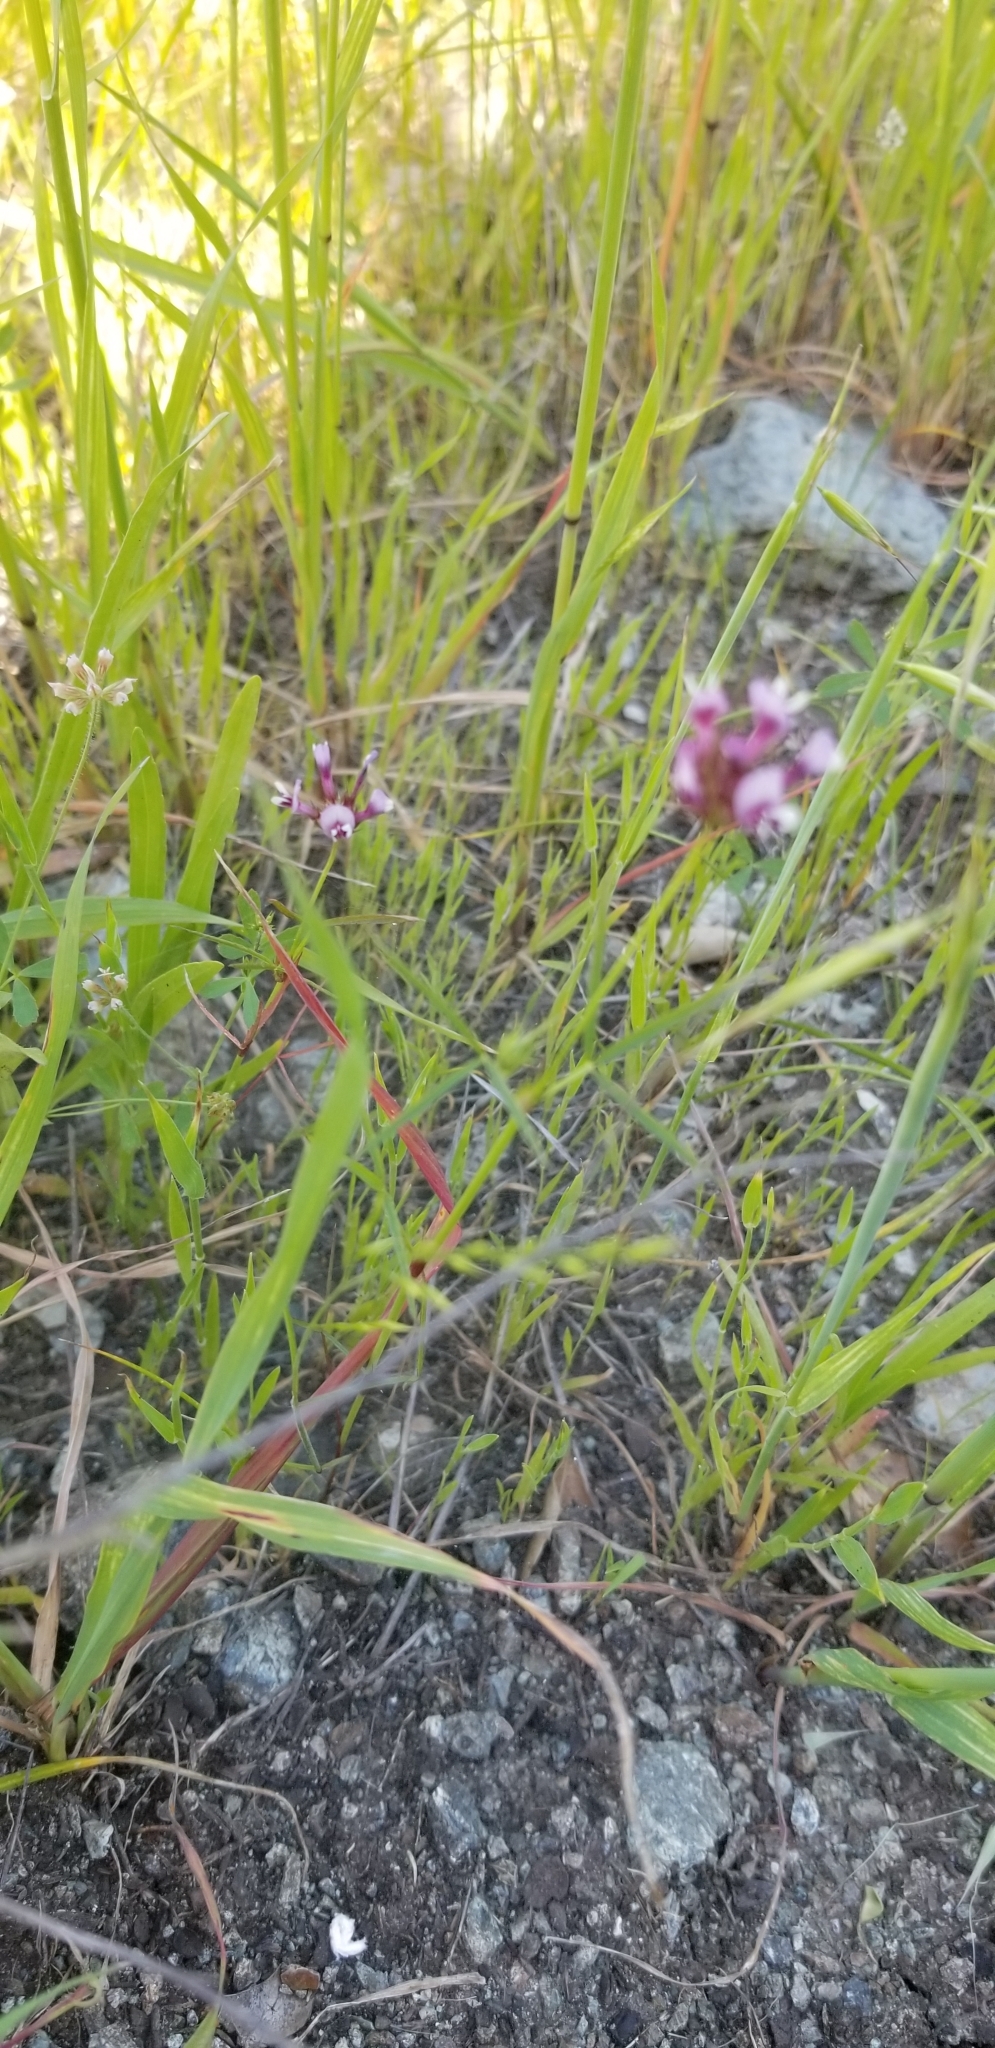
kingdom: Plantae
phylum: Tracheophyta
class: Magnoliopsida
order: Fabales
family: Fabaceae
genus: Trifolium
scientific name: Trifolium willdenovii
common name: Tomcat clover
